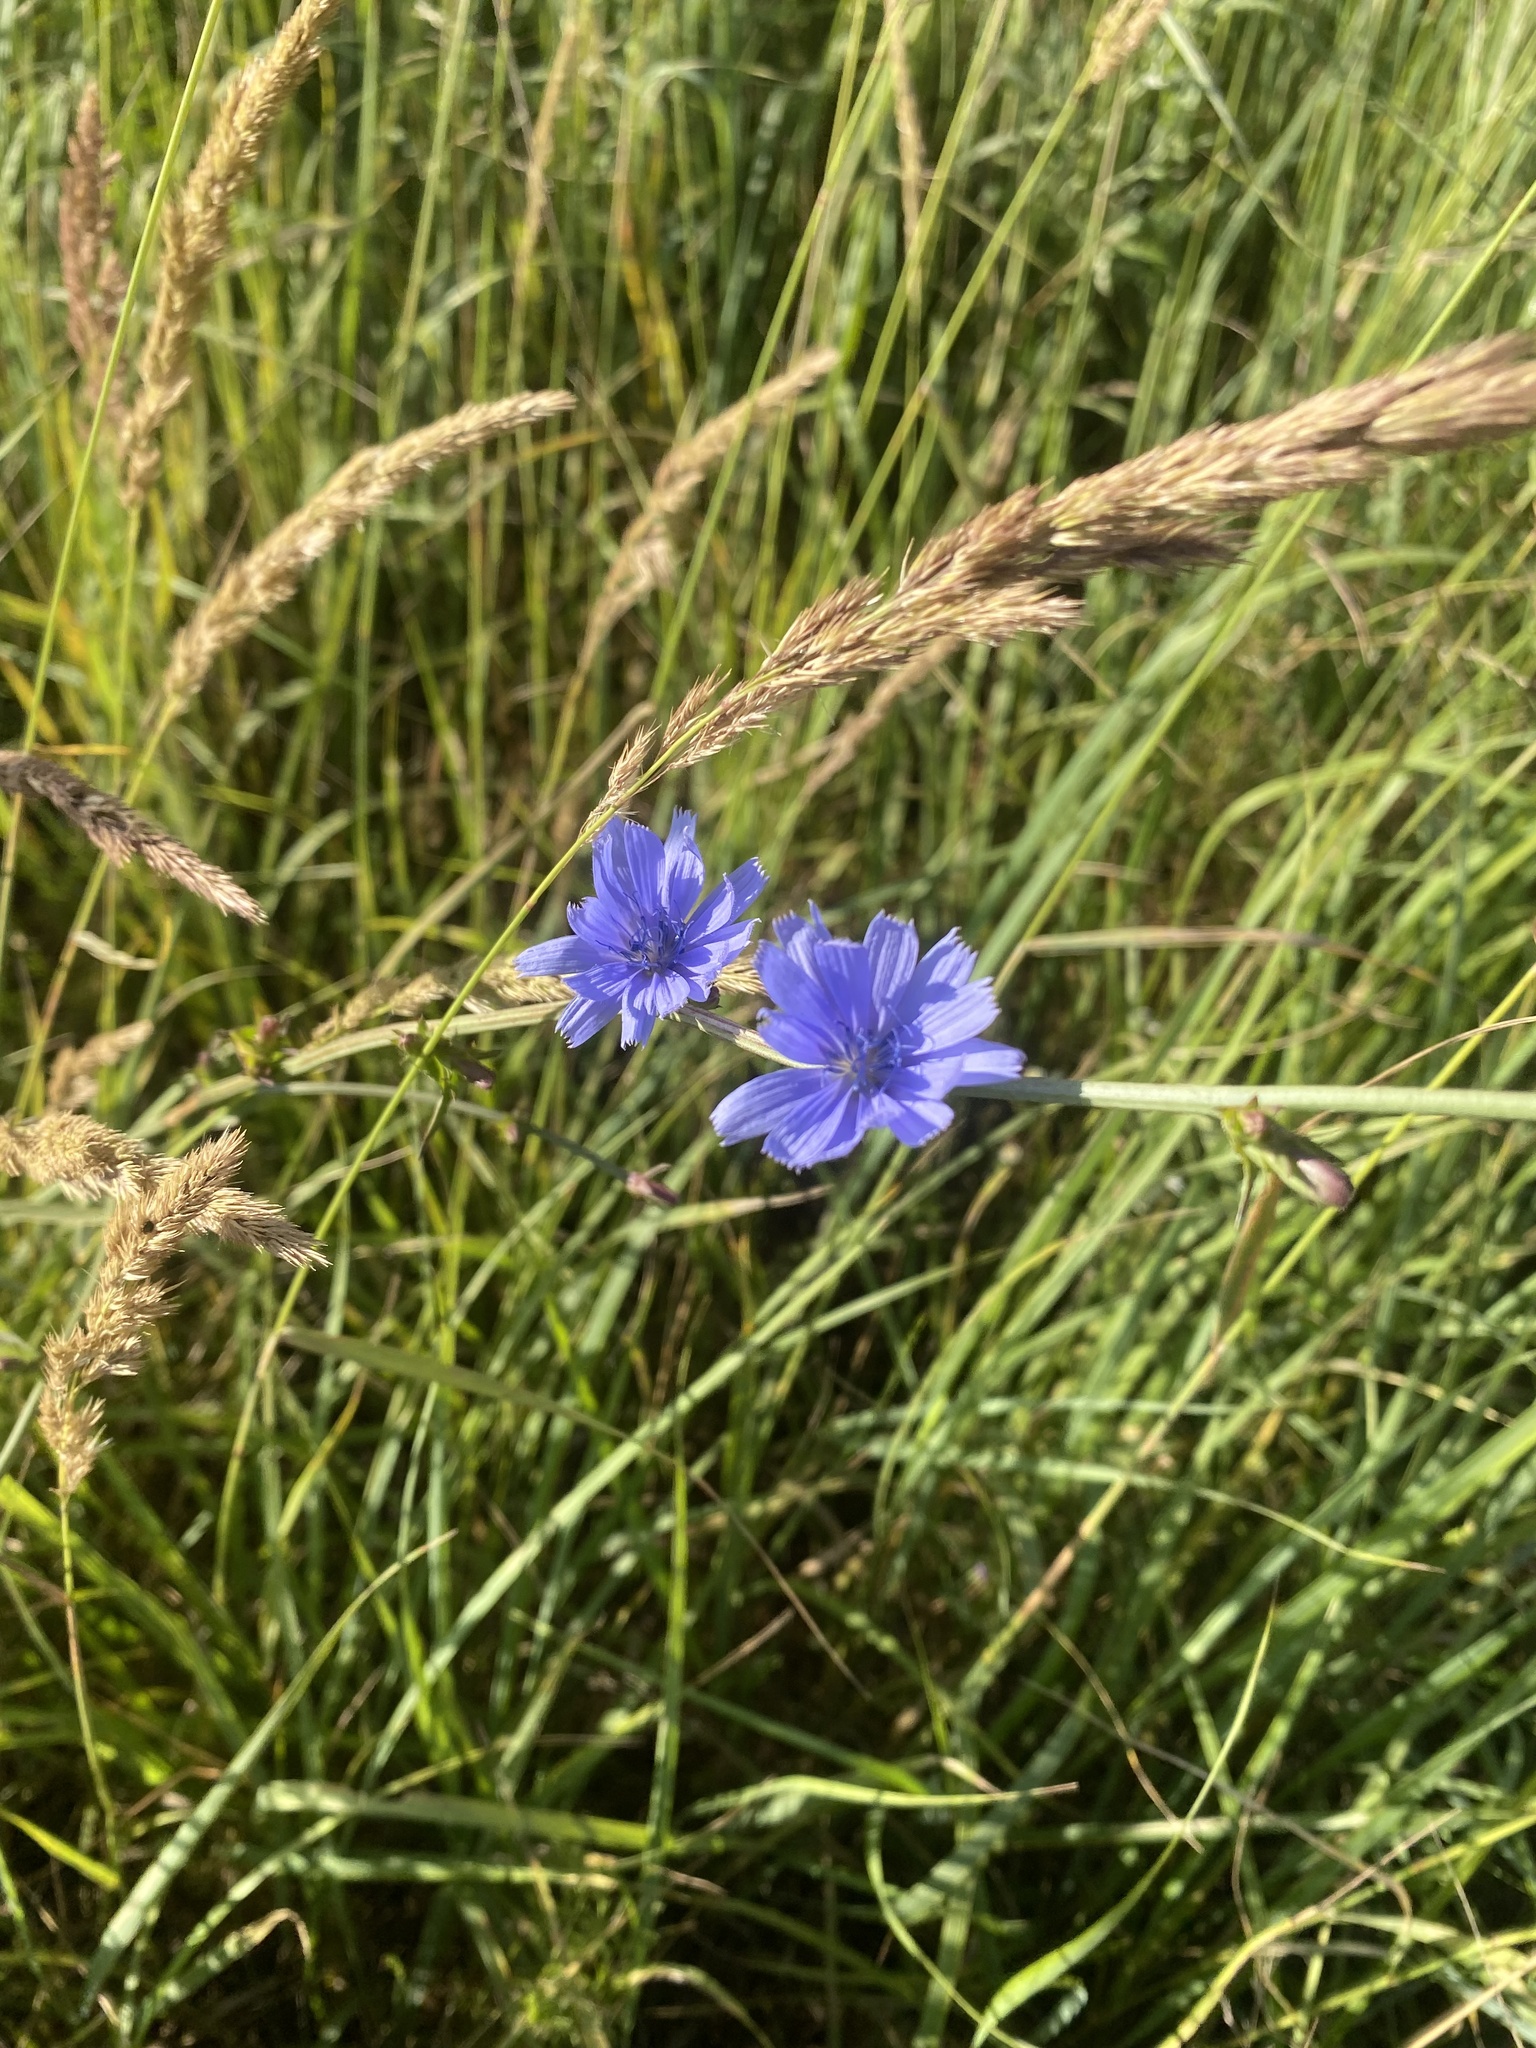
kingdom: Plantae
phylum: Tracheophyta
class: Magnoliopsida
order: Asterales
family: Asteraceae
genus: Cichorium
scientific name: Cichorium intybus
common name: Chicory
